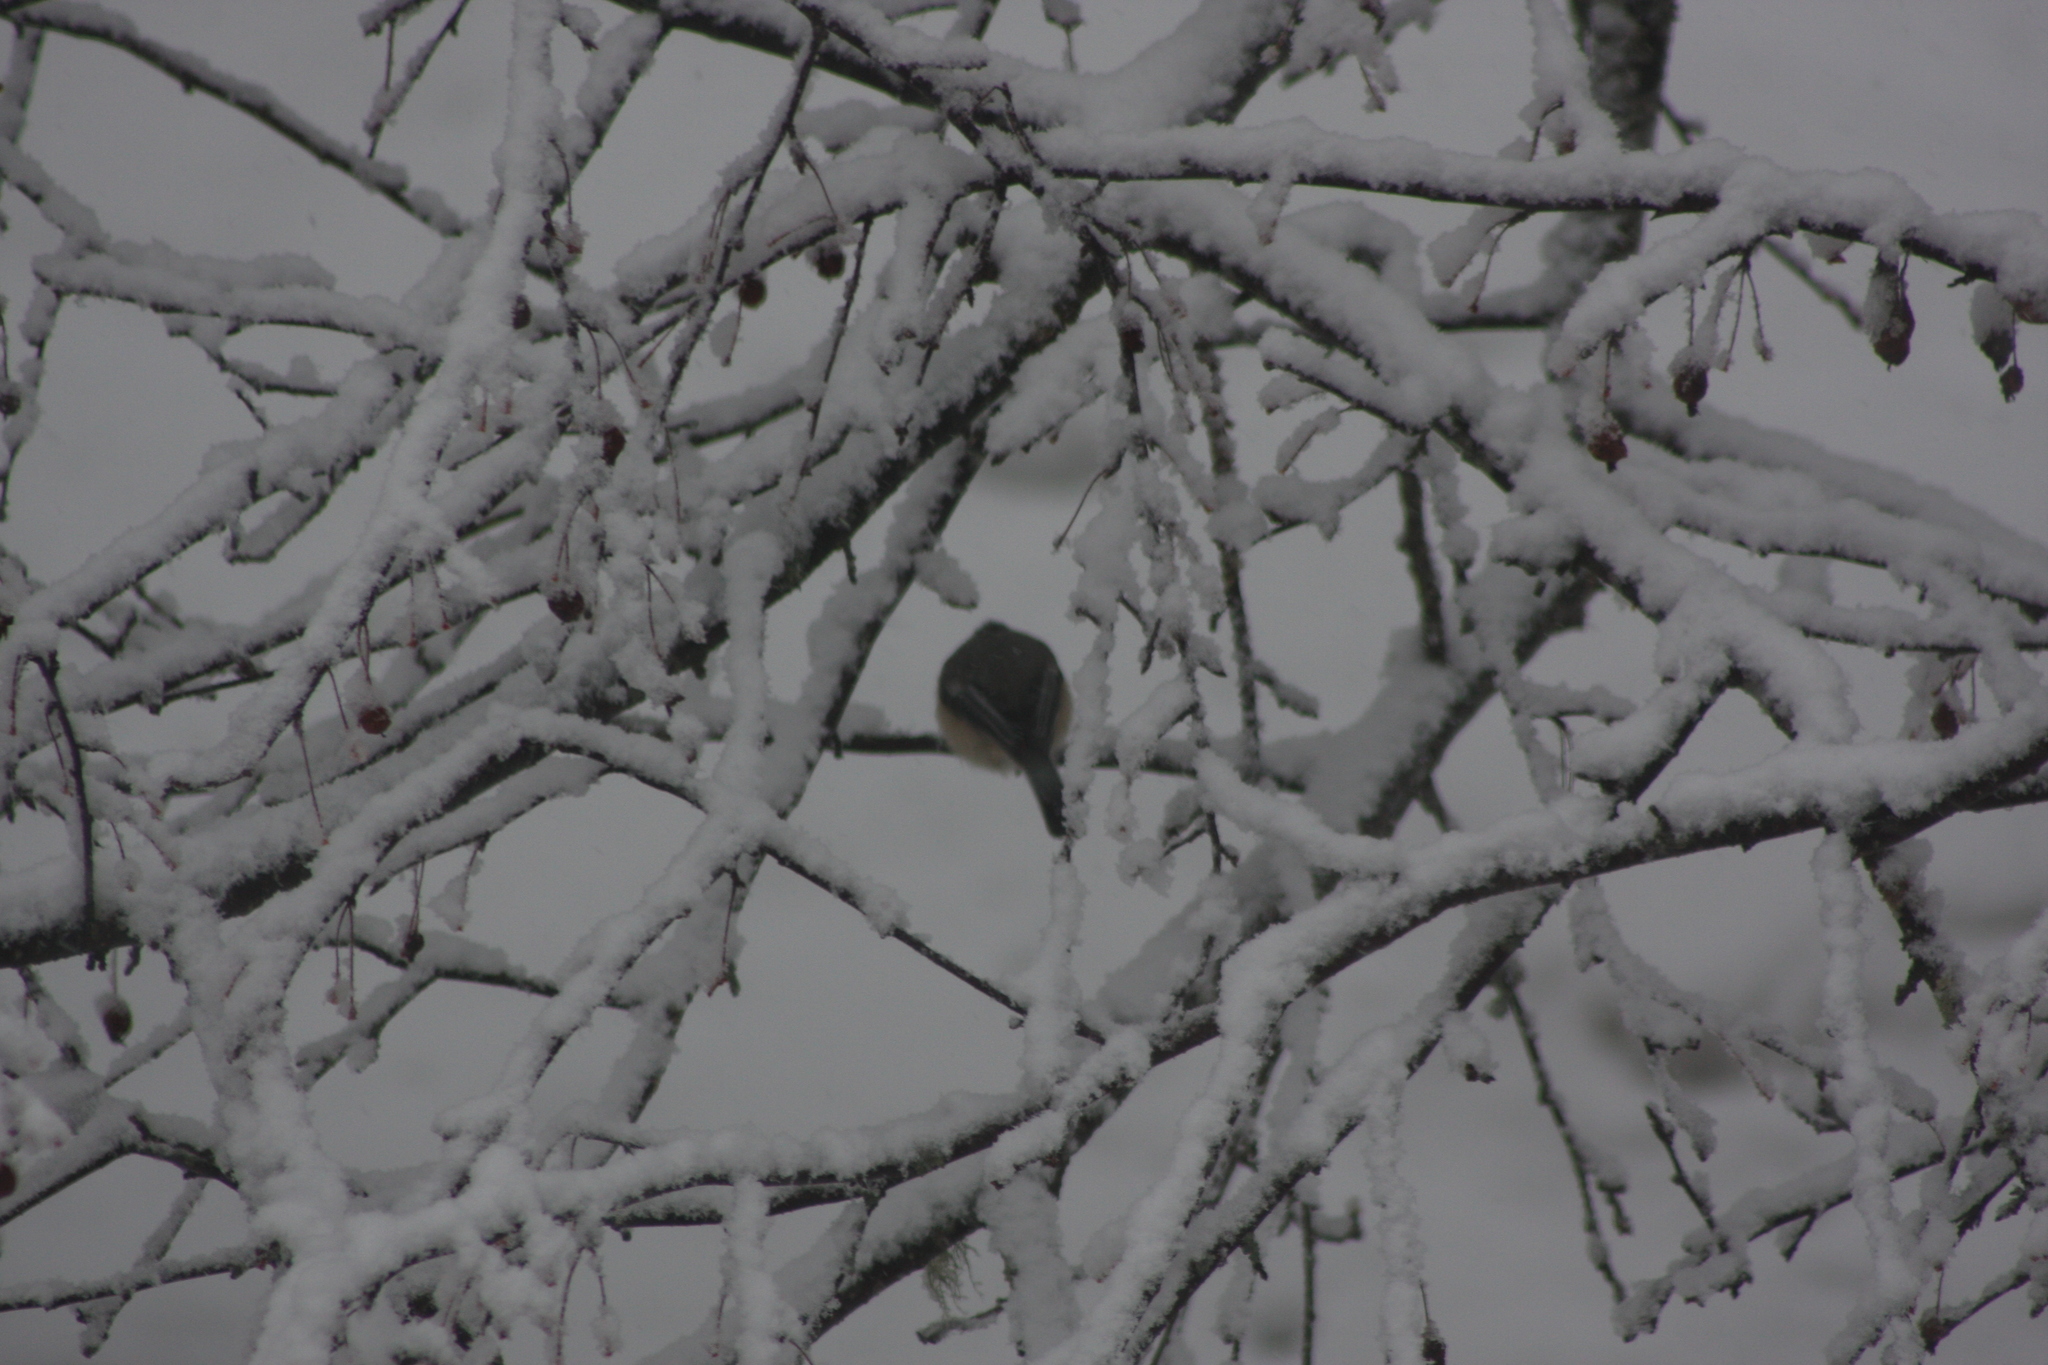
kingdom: Animalia
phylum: Chordata
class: Aves
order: Passeriformes
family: Paridae
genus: Poecile
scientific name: Poecile atricapillus
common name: Black-capped chickadee
